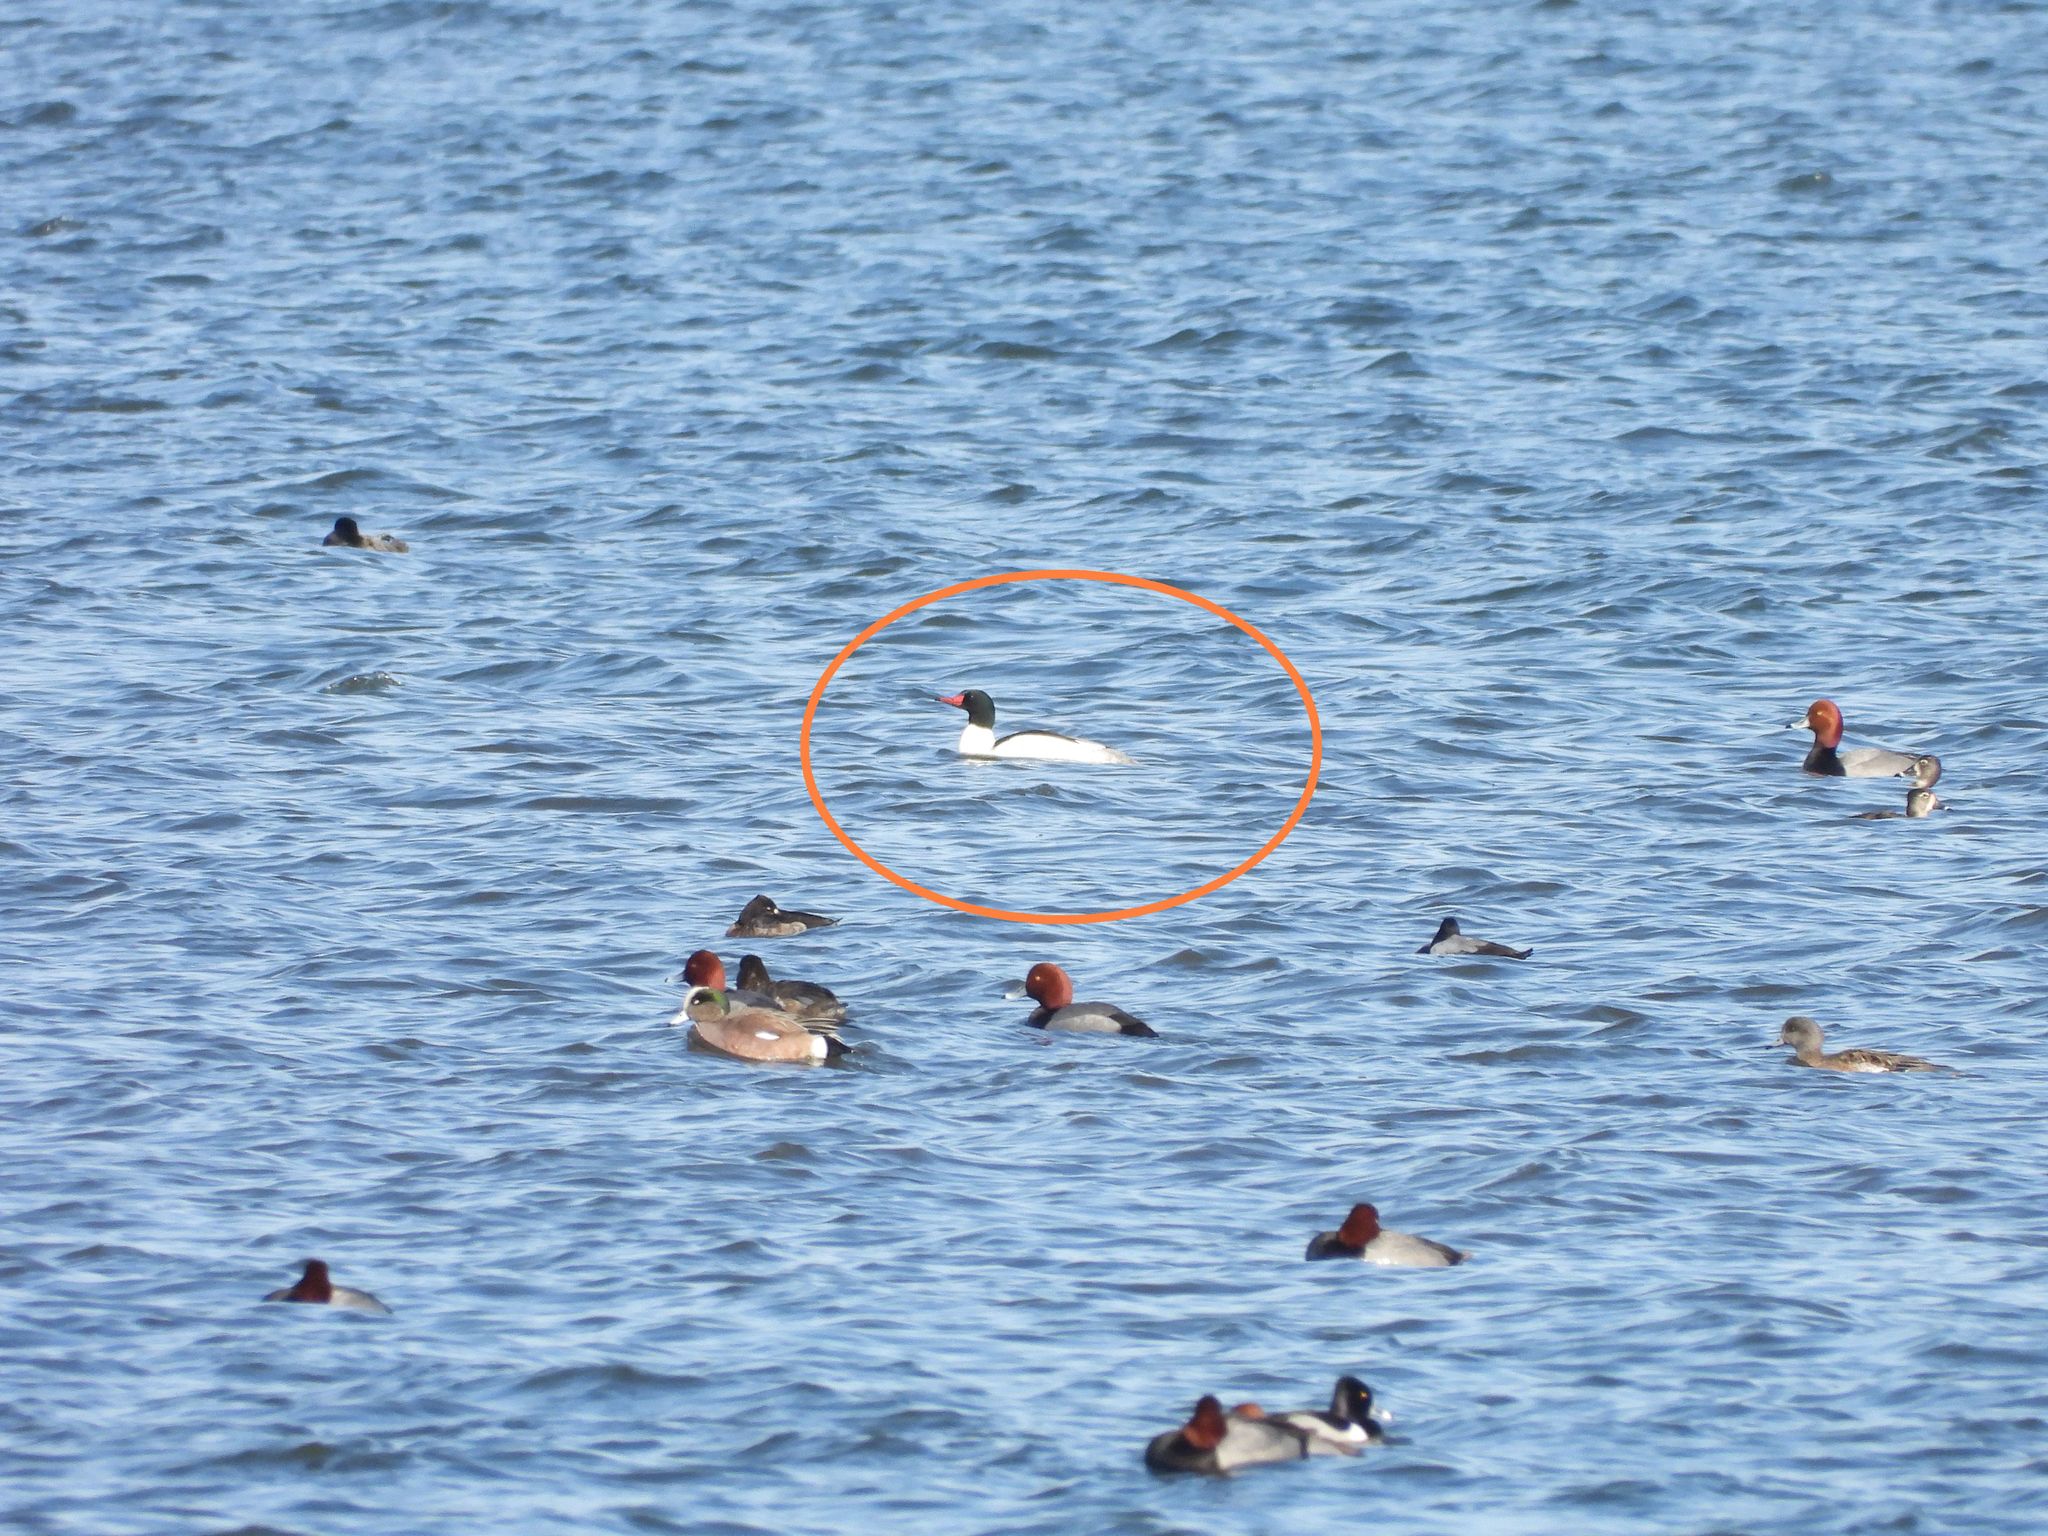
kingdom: Animalia
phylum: Chordata
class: Aves
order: Anseriformes
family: Anatidae
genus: Mergus
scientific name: Mergus merganser
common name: Common merganser
